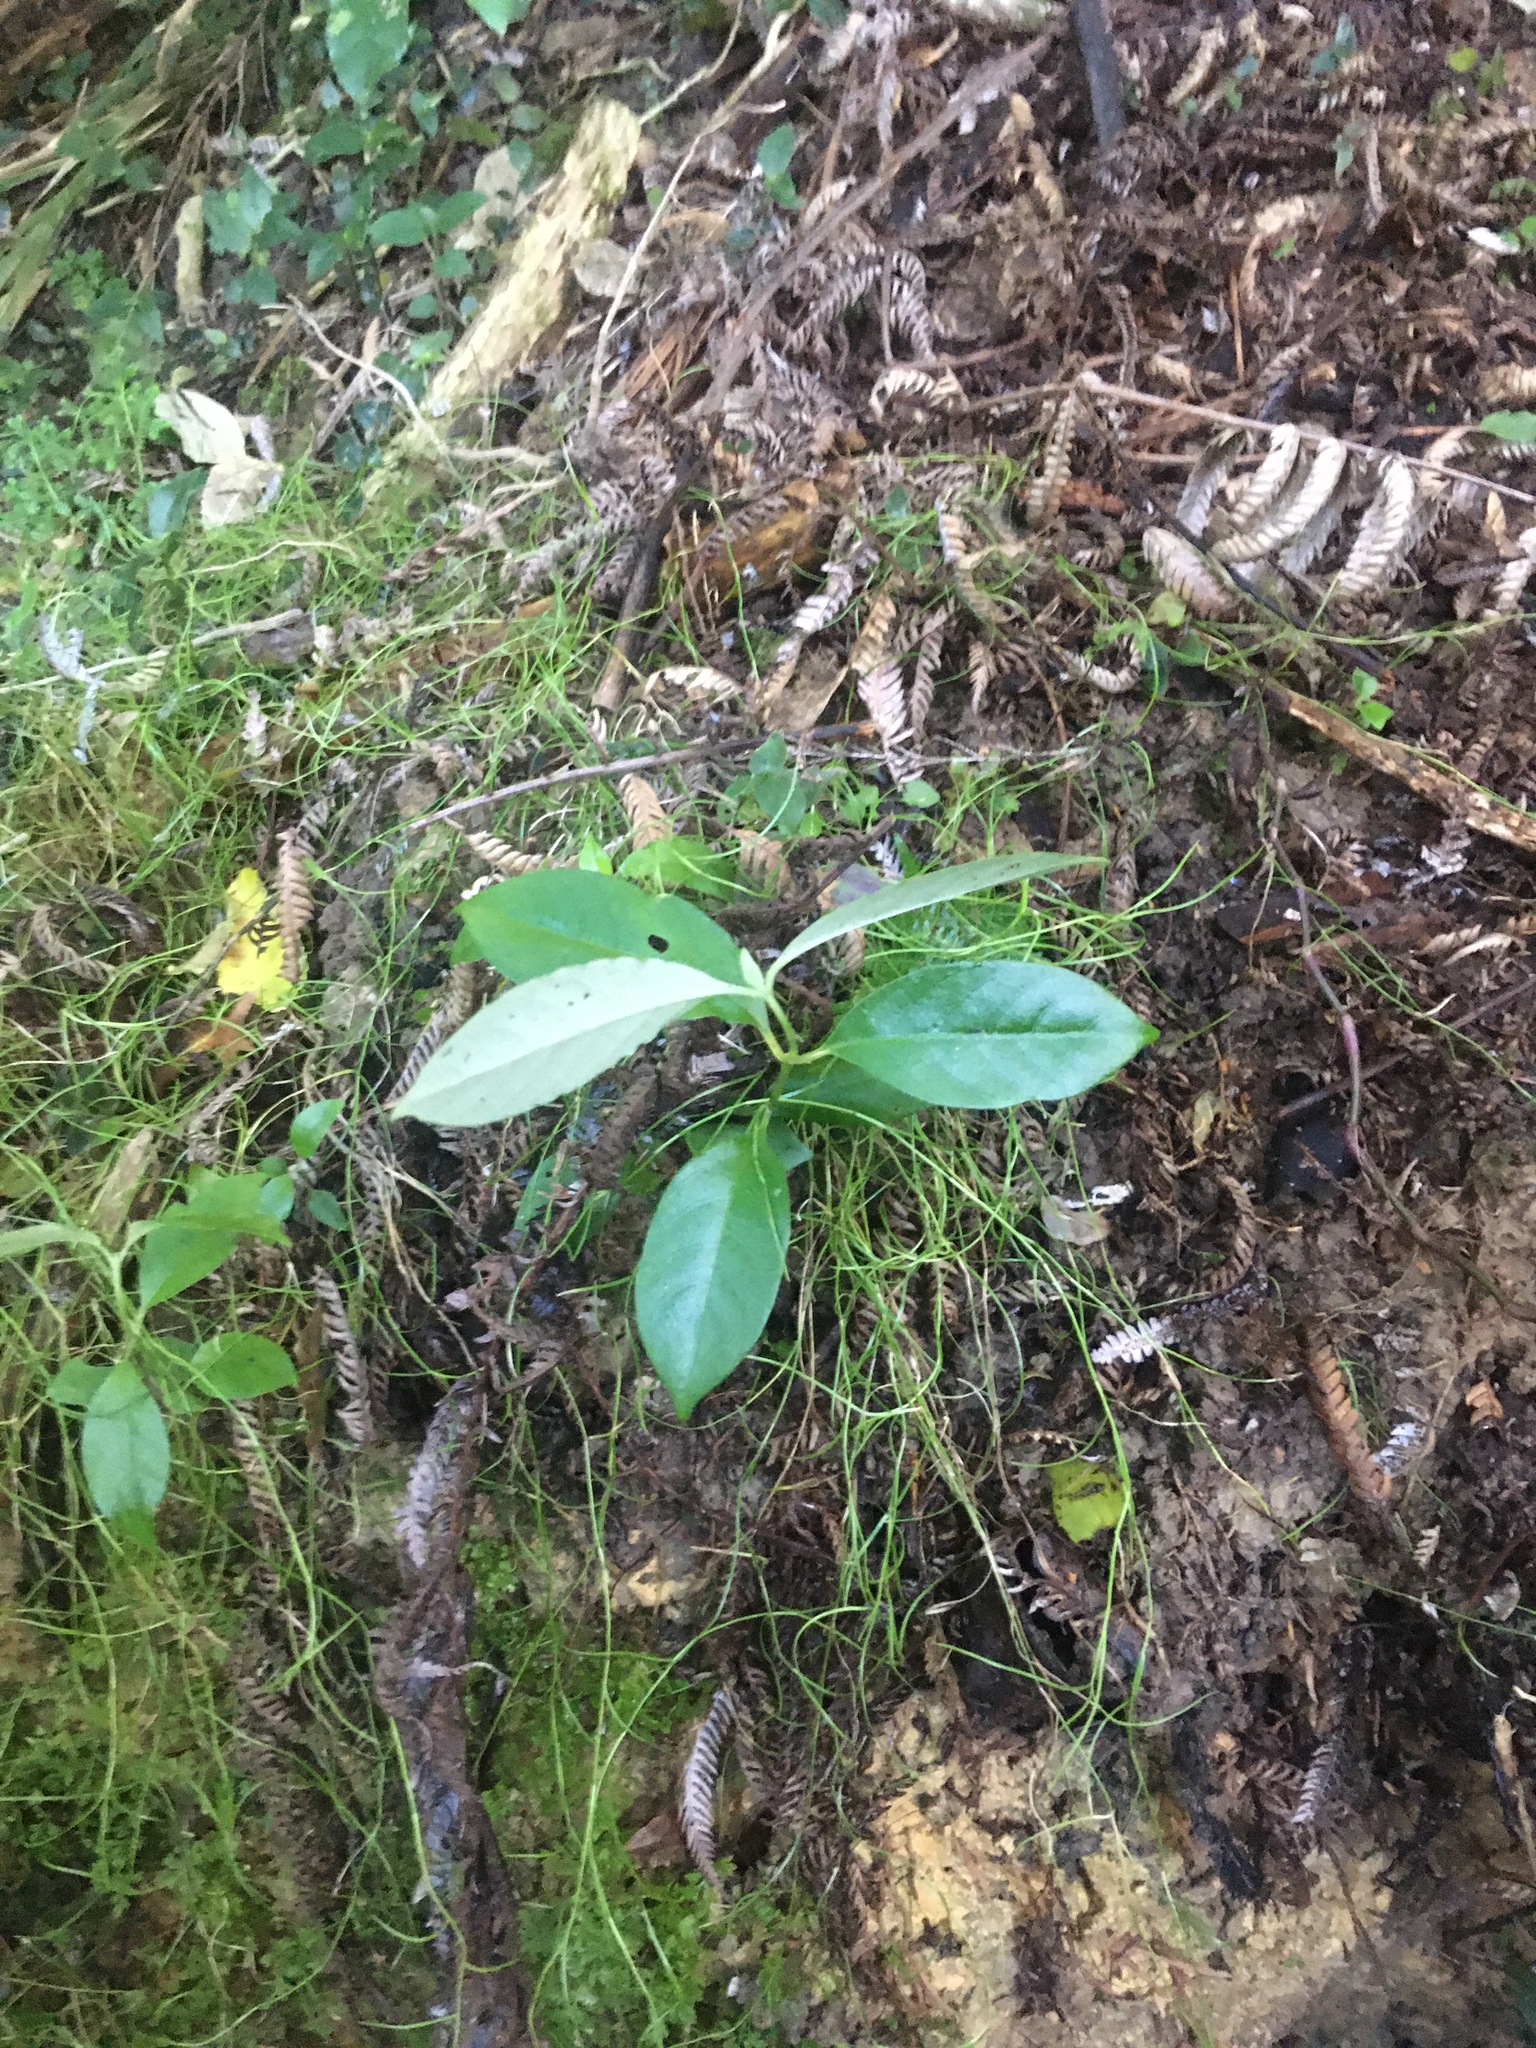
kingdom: Plantae
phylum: Tracheophyta
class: Magnoliopsida
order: Gentianales
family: Loganiaceae
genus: Geniostoma
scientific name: Geniostoma ligustrifolium
